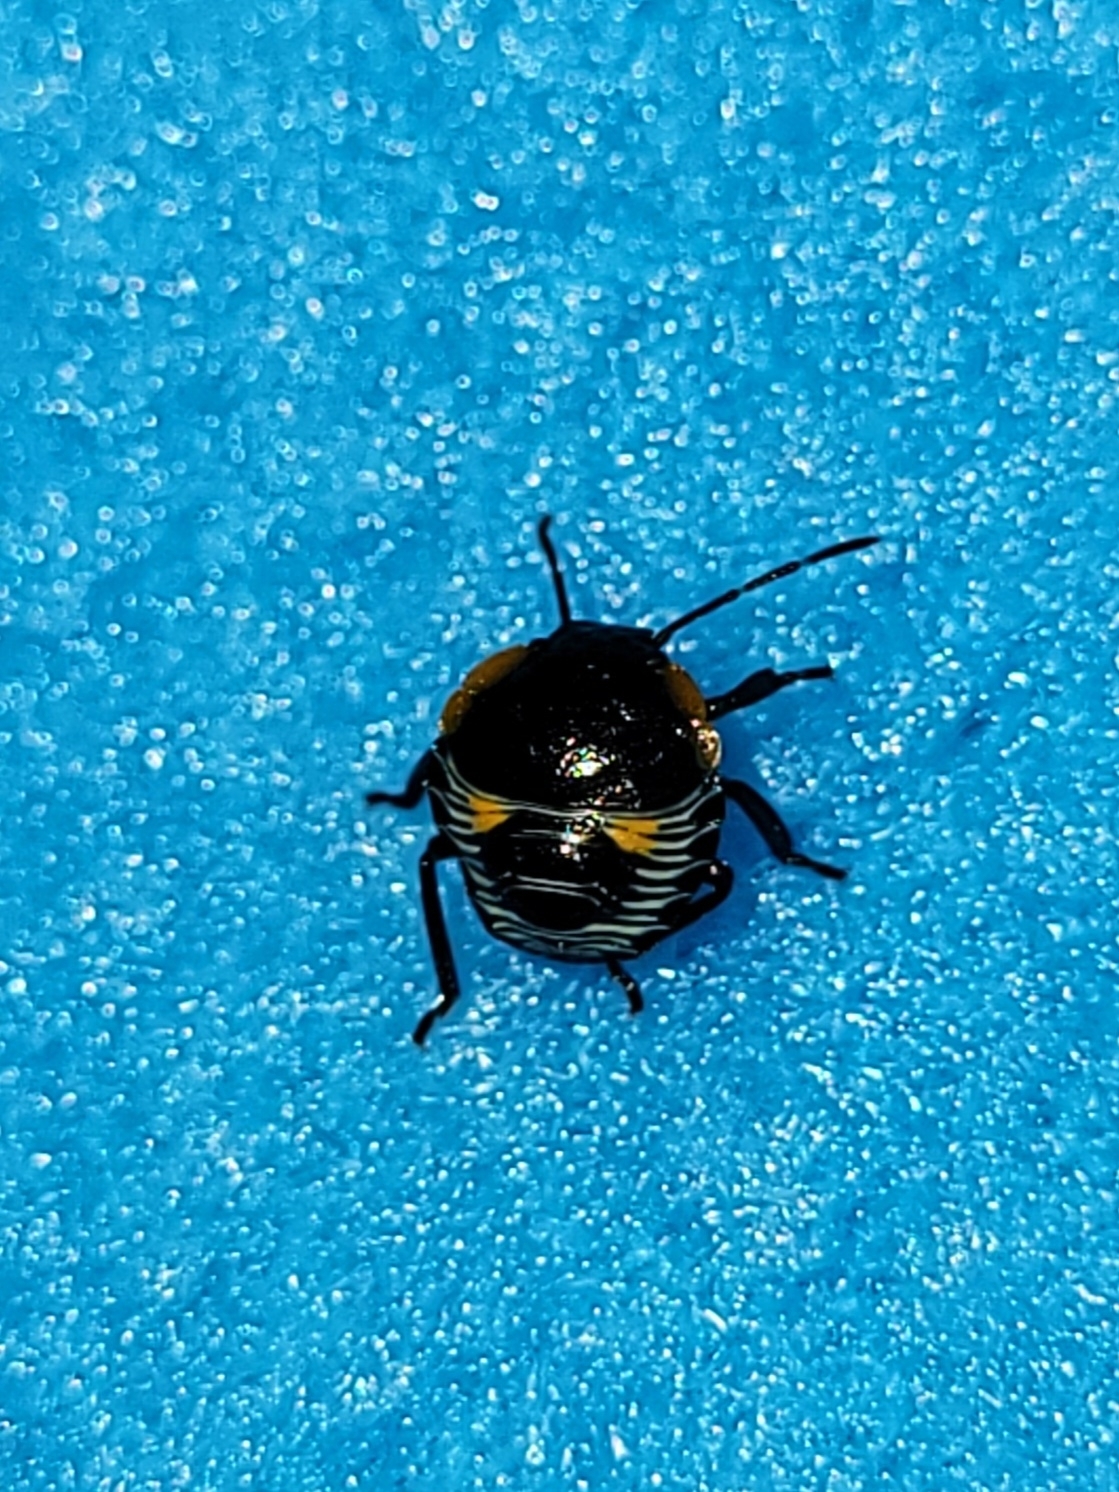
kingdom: Animalia
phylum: Arthropoda
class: Insecta
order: Hemiptera
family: Pentatomidae
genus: Chinavia
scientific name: Chinavia hilaris
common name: Green stink bug
